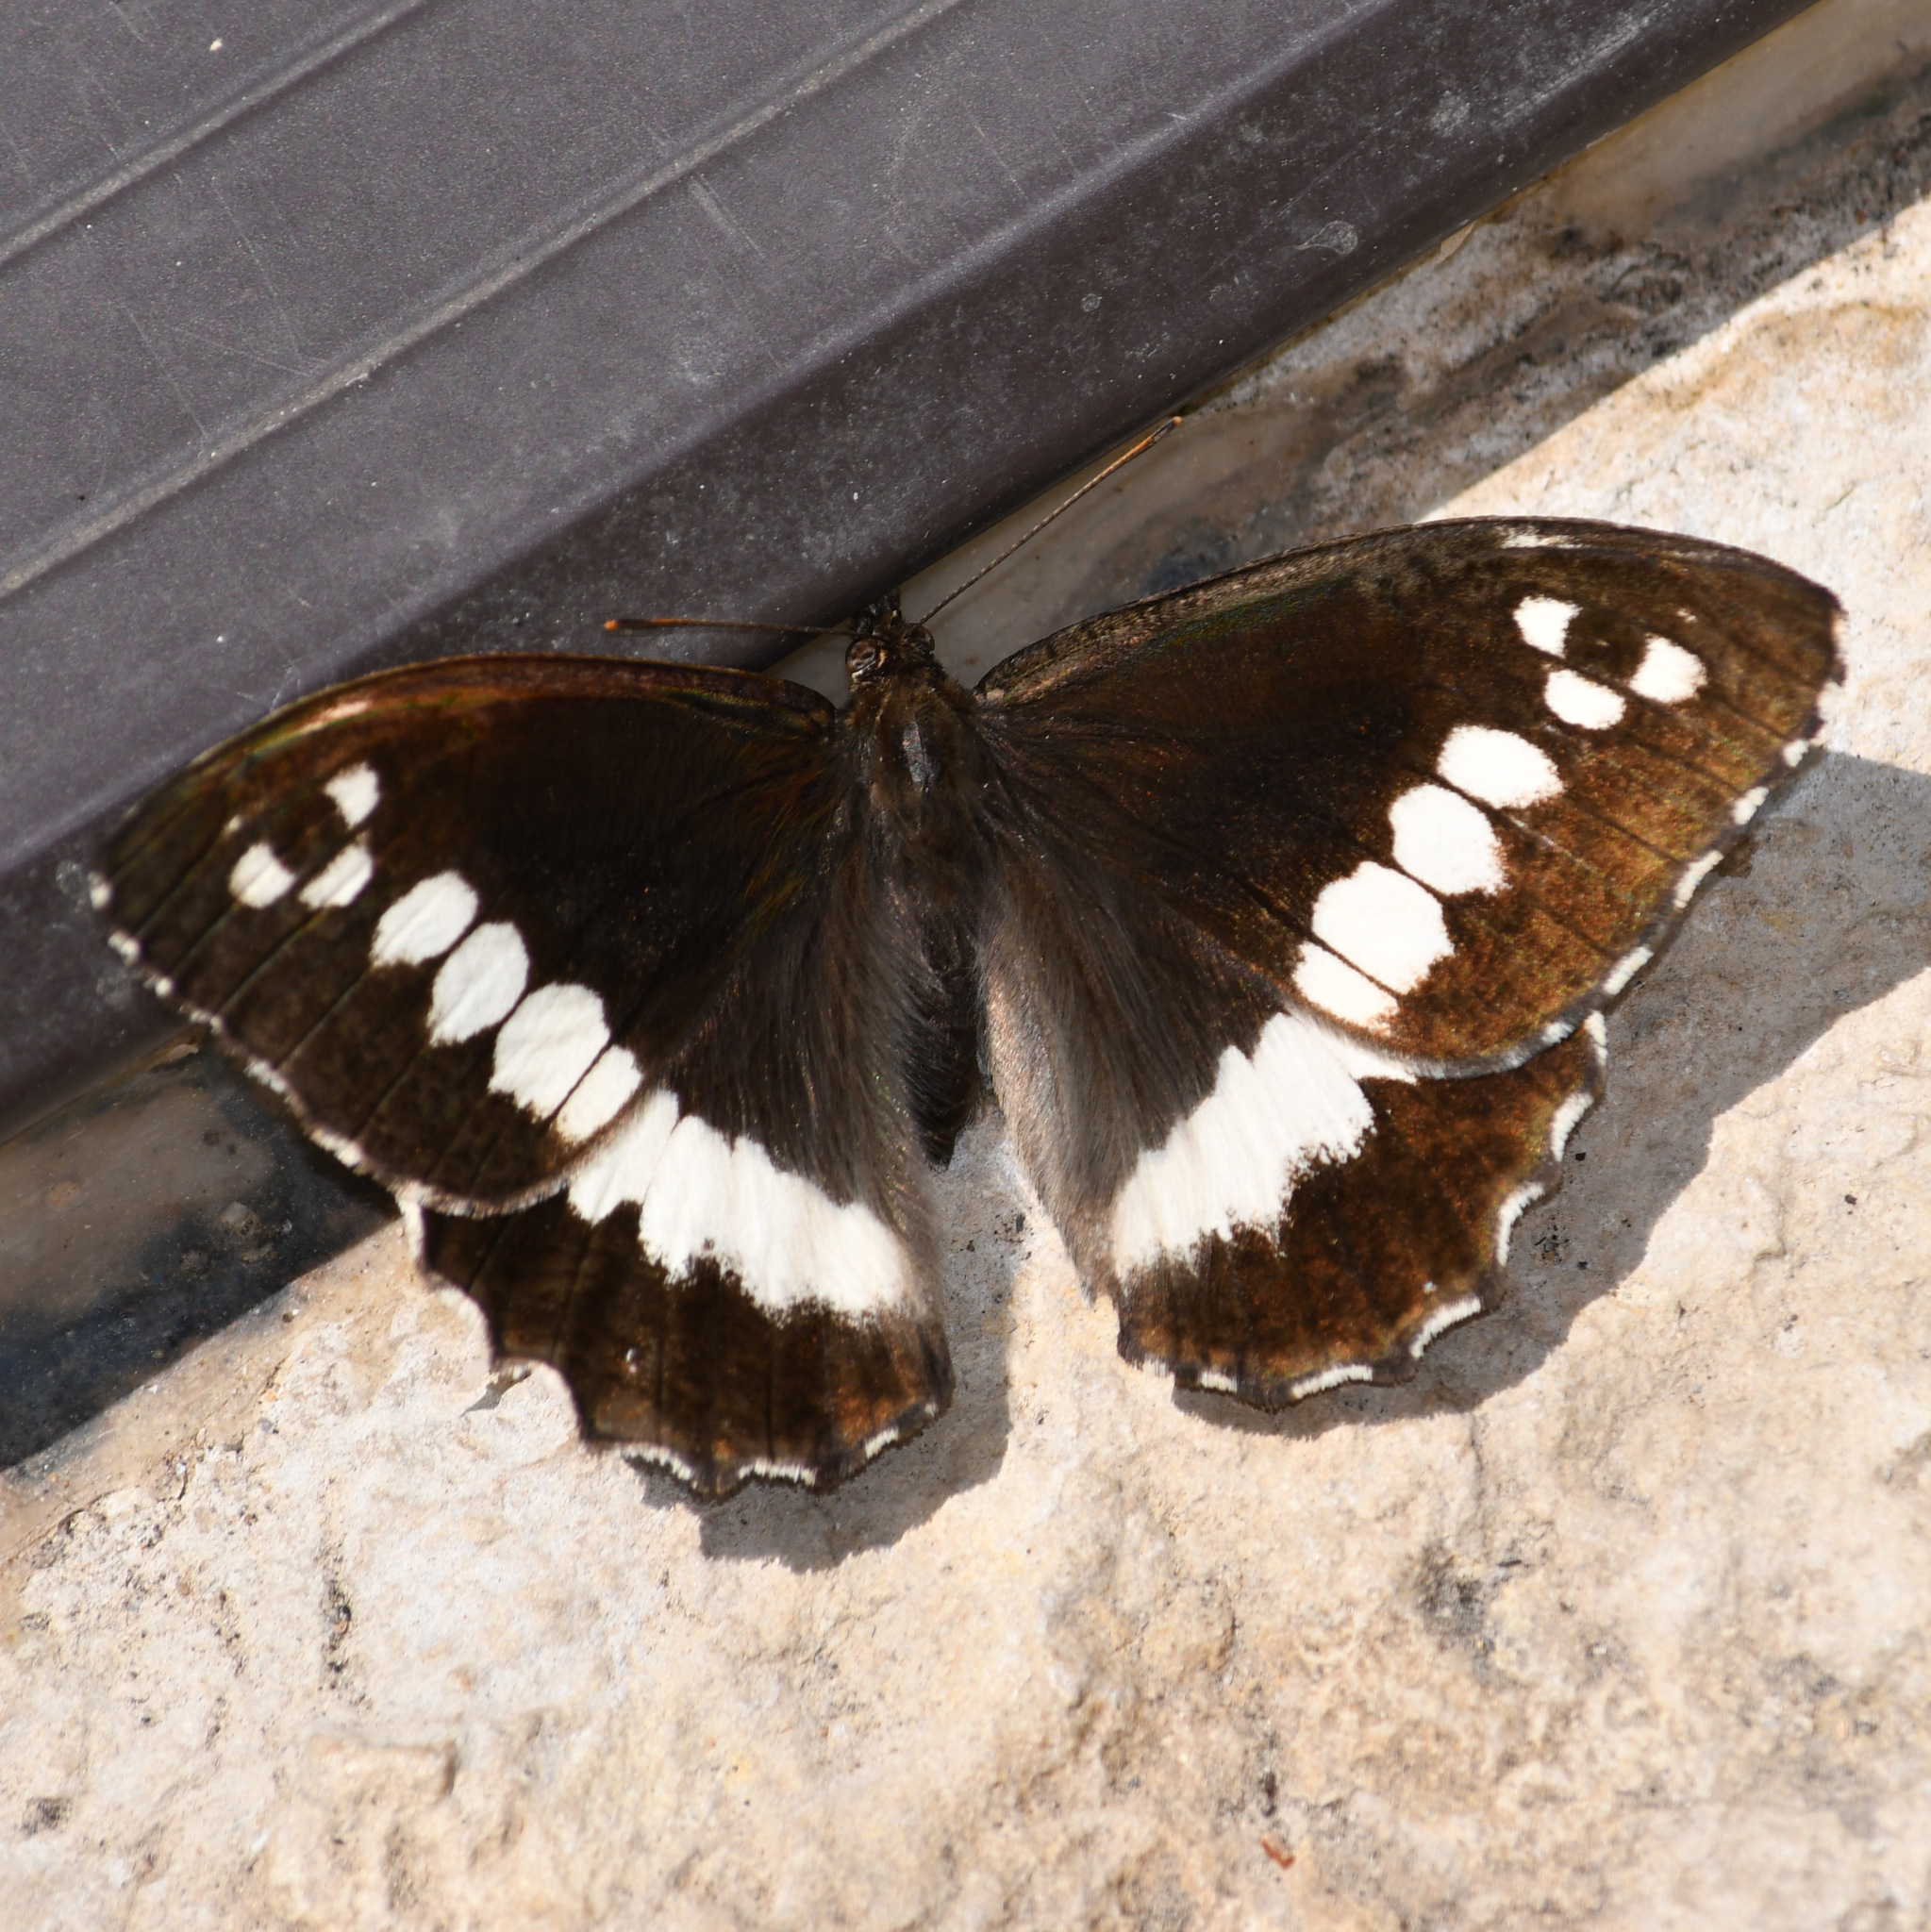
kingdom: Animalia
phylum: Arthropoda
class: Insecta
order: Lepidoptera
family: Lycaenidae
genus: Loweia
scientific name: Loweia tityrus
